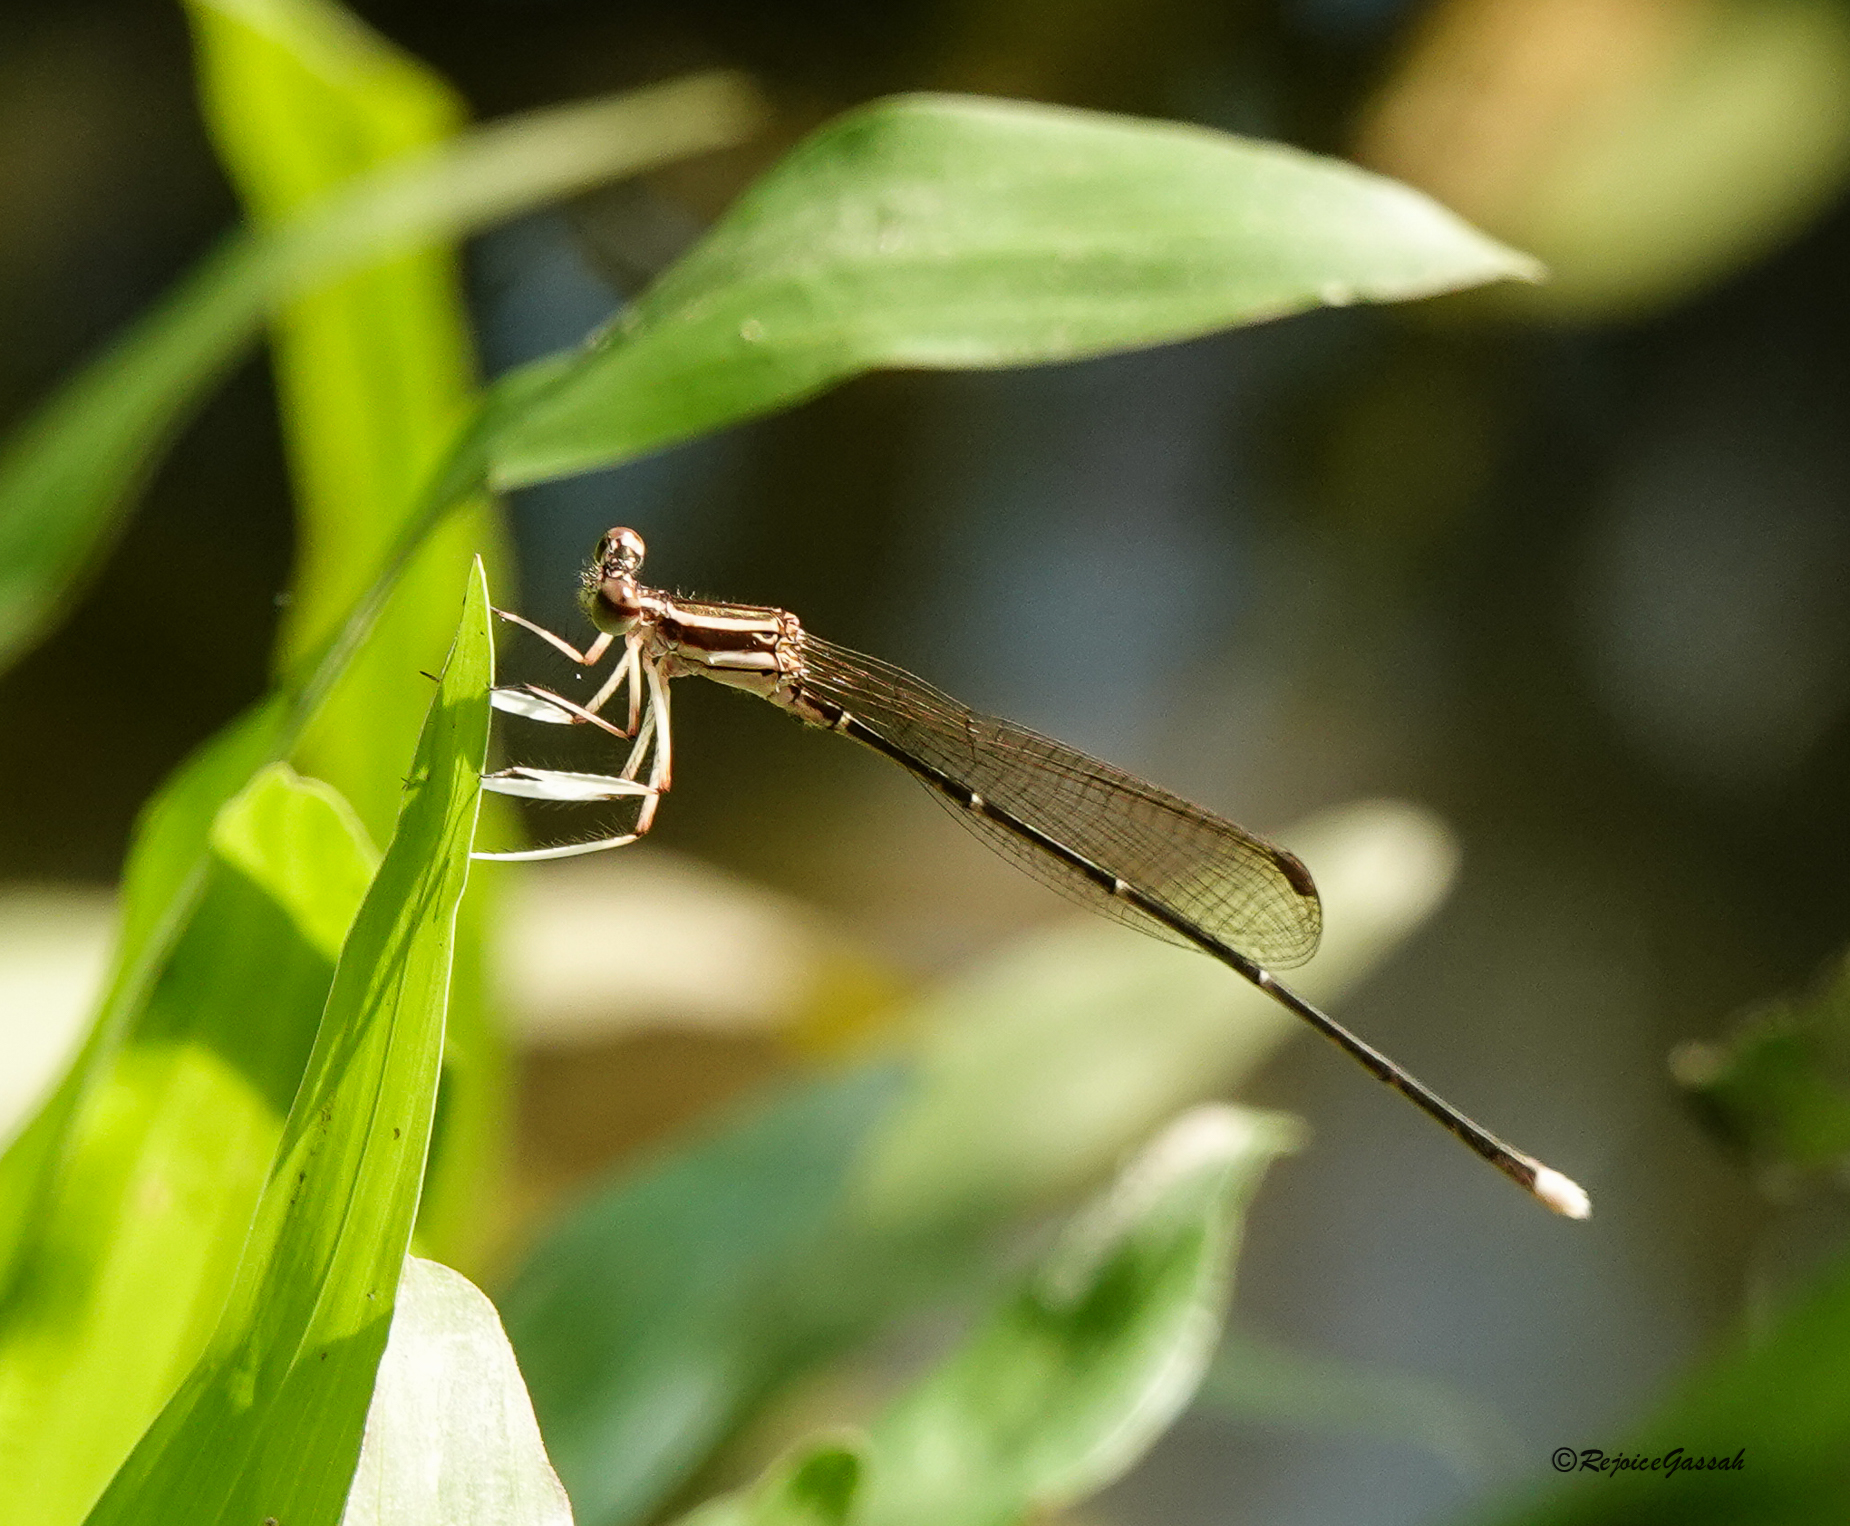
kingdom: Animalia
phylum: Arthropoda
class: Insecta
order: Odonata
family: Platycnemididae
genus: Pseudocopera
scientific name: Pseudocopera ciliata
